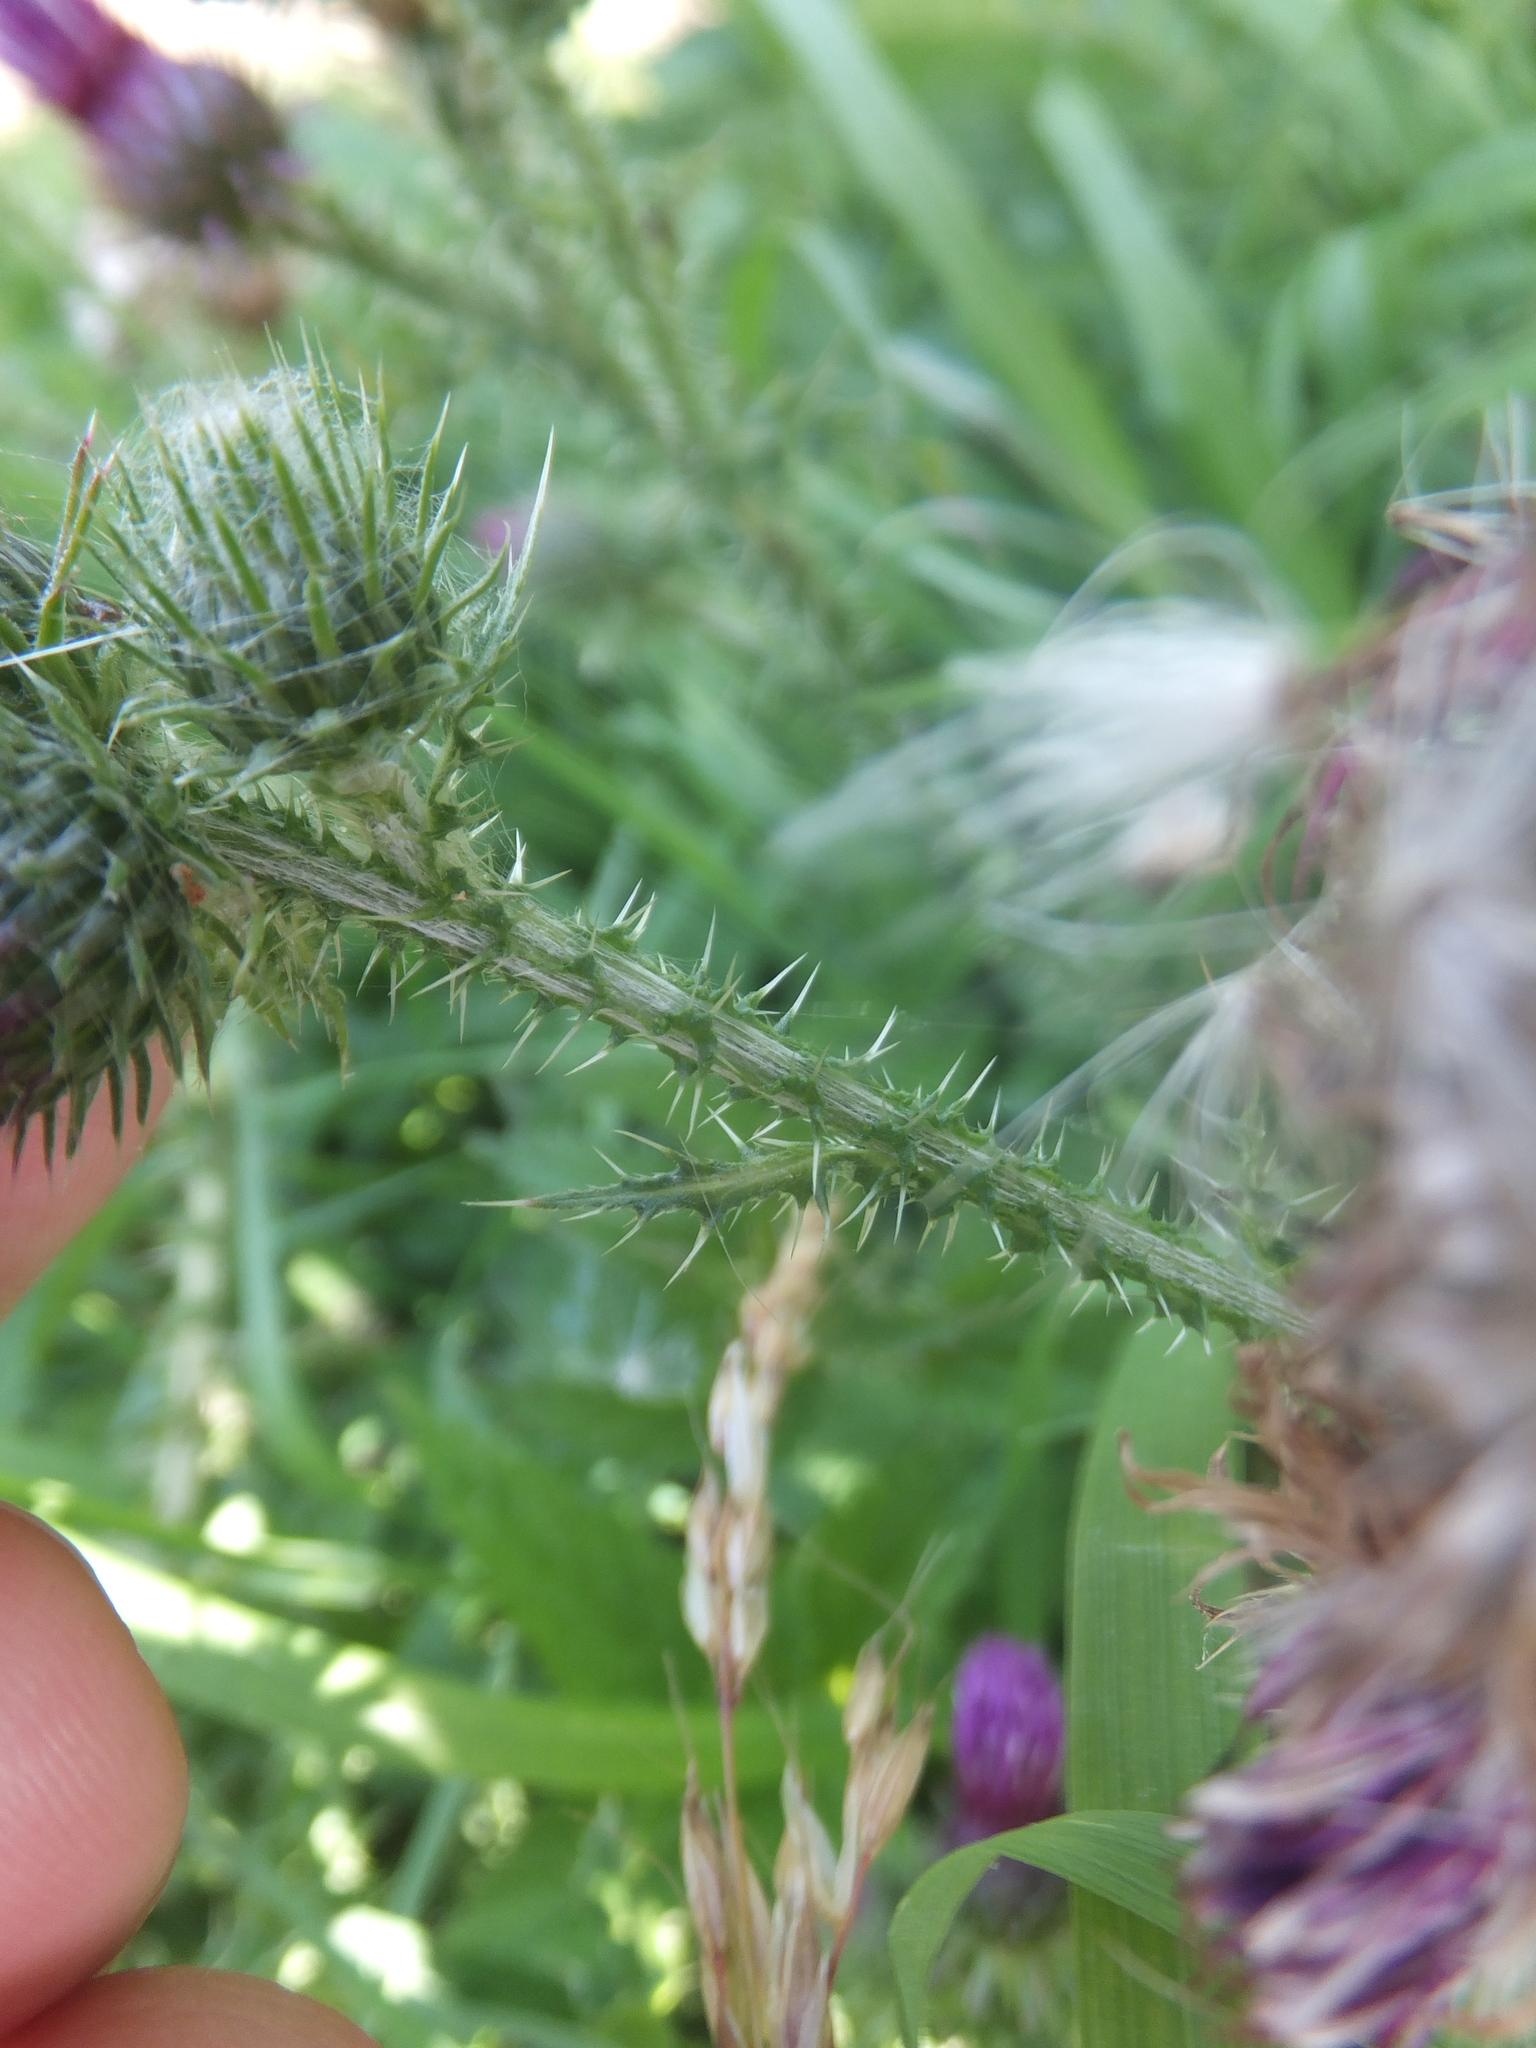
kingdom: Plantae
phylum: Tracheophyta
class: Magnoliopsida
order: Asterales
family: Asteraceae
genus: Carduus
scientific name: Carduus crispus
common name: Welted thistle
